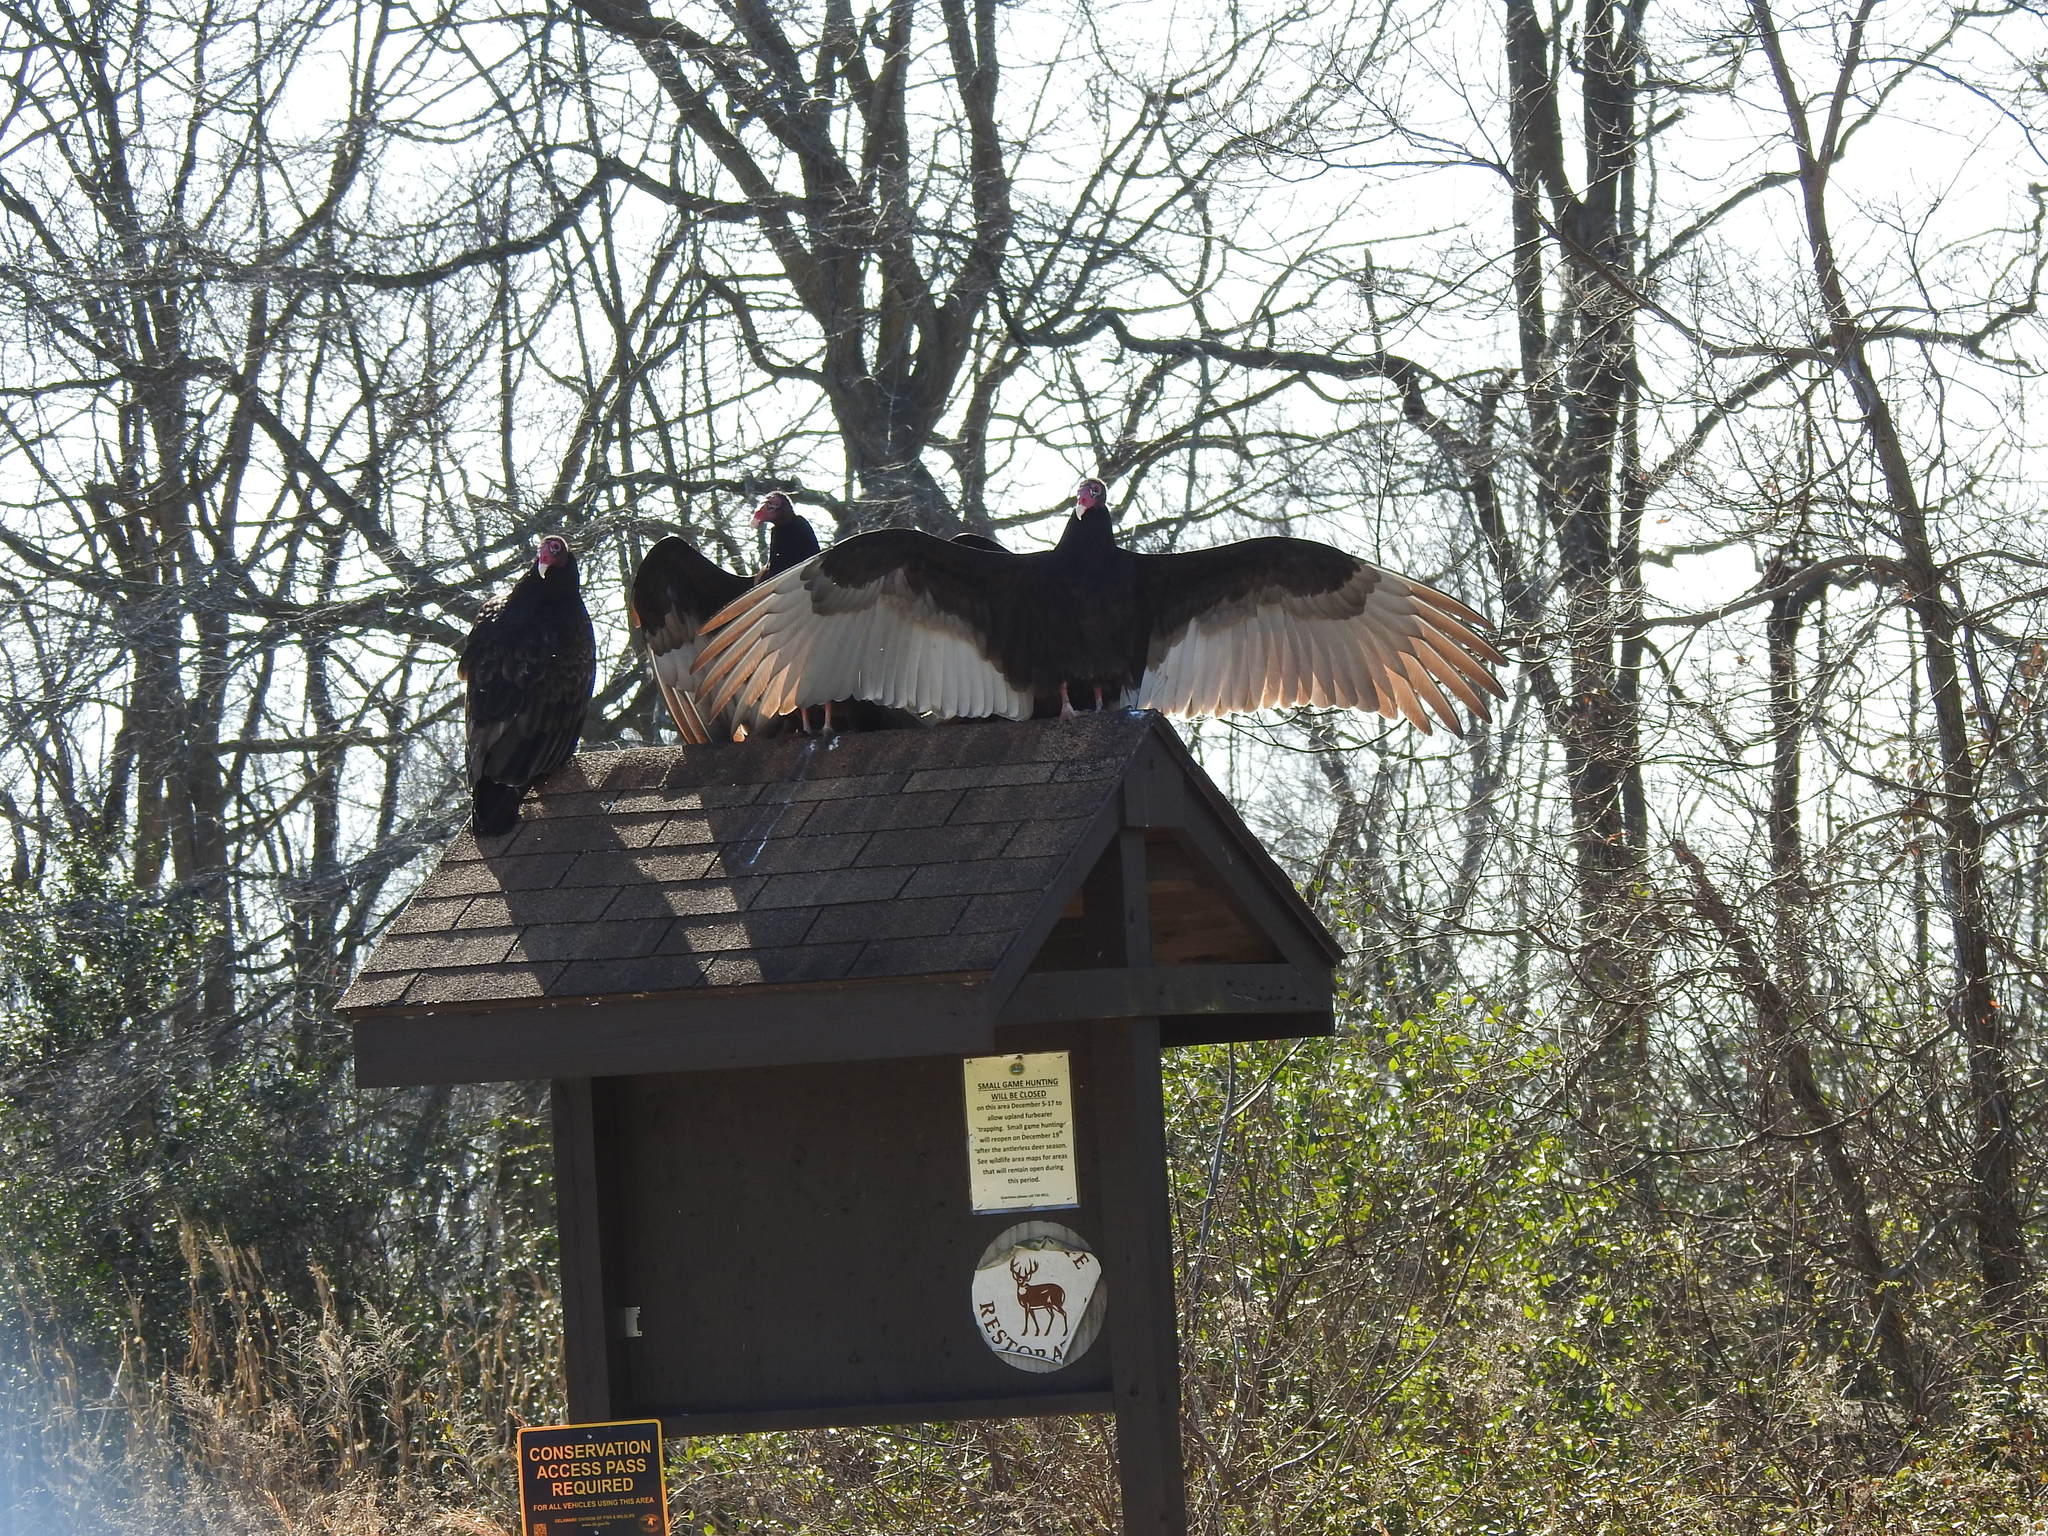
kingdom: Animalia
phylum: Chordata
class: Aves
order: Accipitriformes
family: Cathartidae
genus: Cathartes
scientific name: Cathartes aura
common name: Turkey vulture
